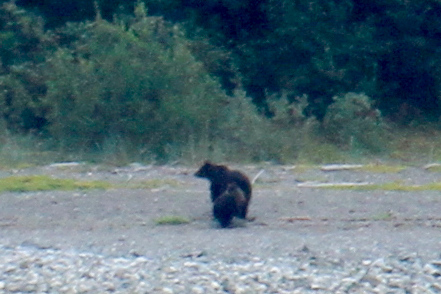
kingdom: Animalia
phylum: Chordata
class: Mammalia
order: Carnivora
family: Ursidae
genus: Ursus
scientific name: Ursus arctos
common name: Brown bear
